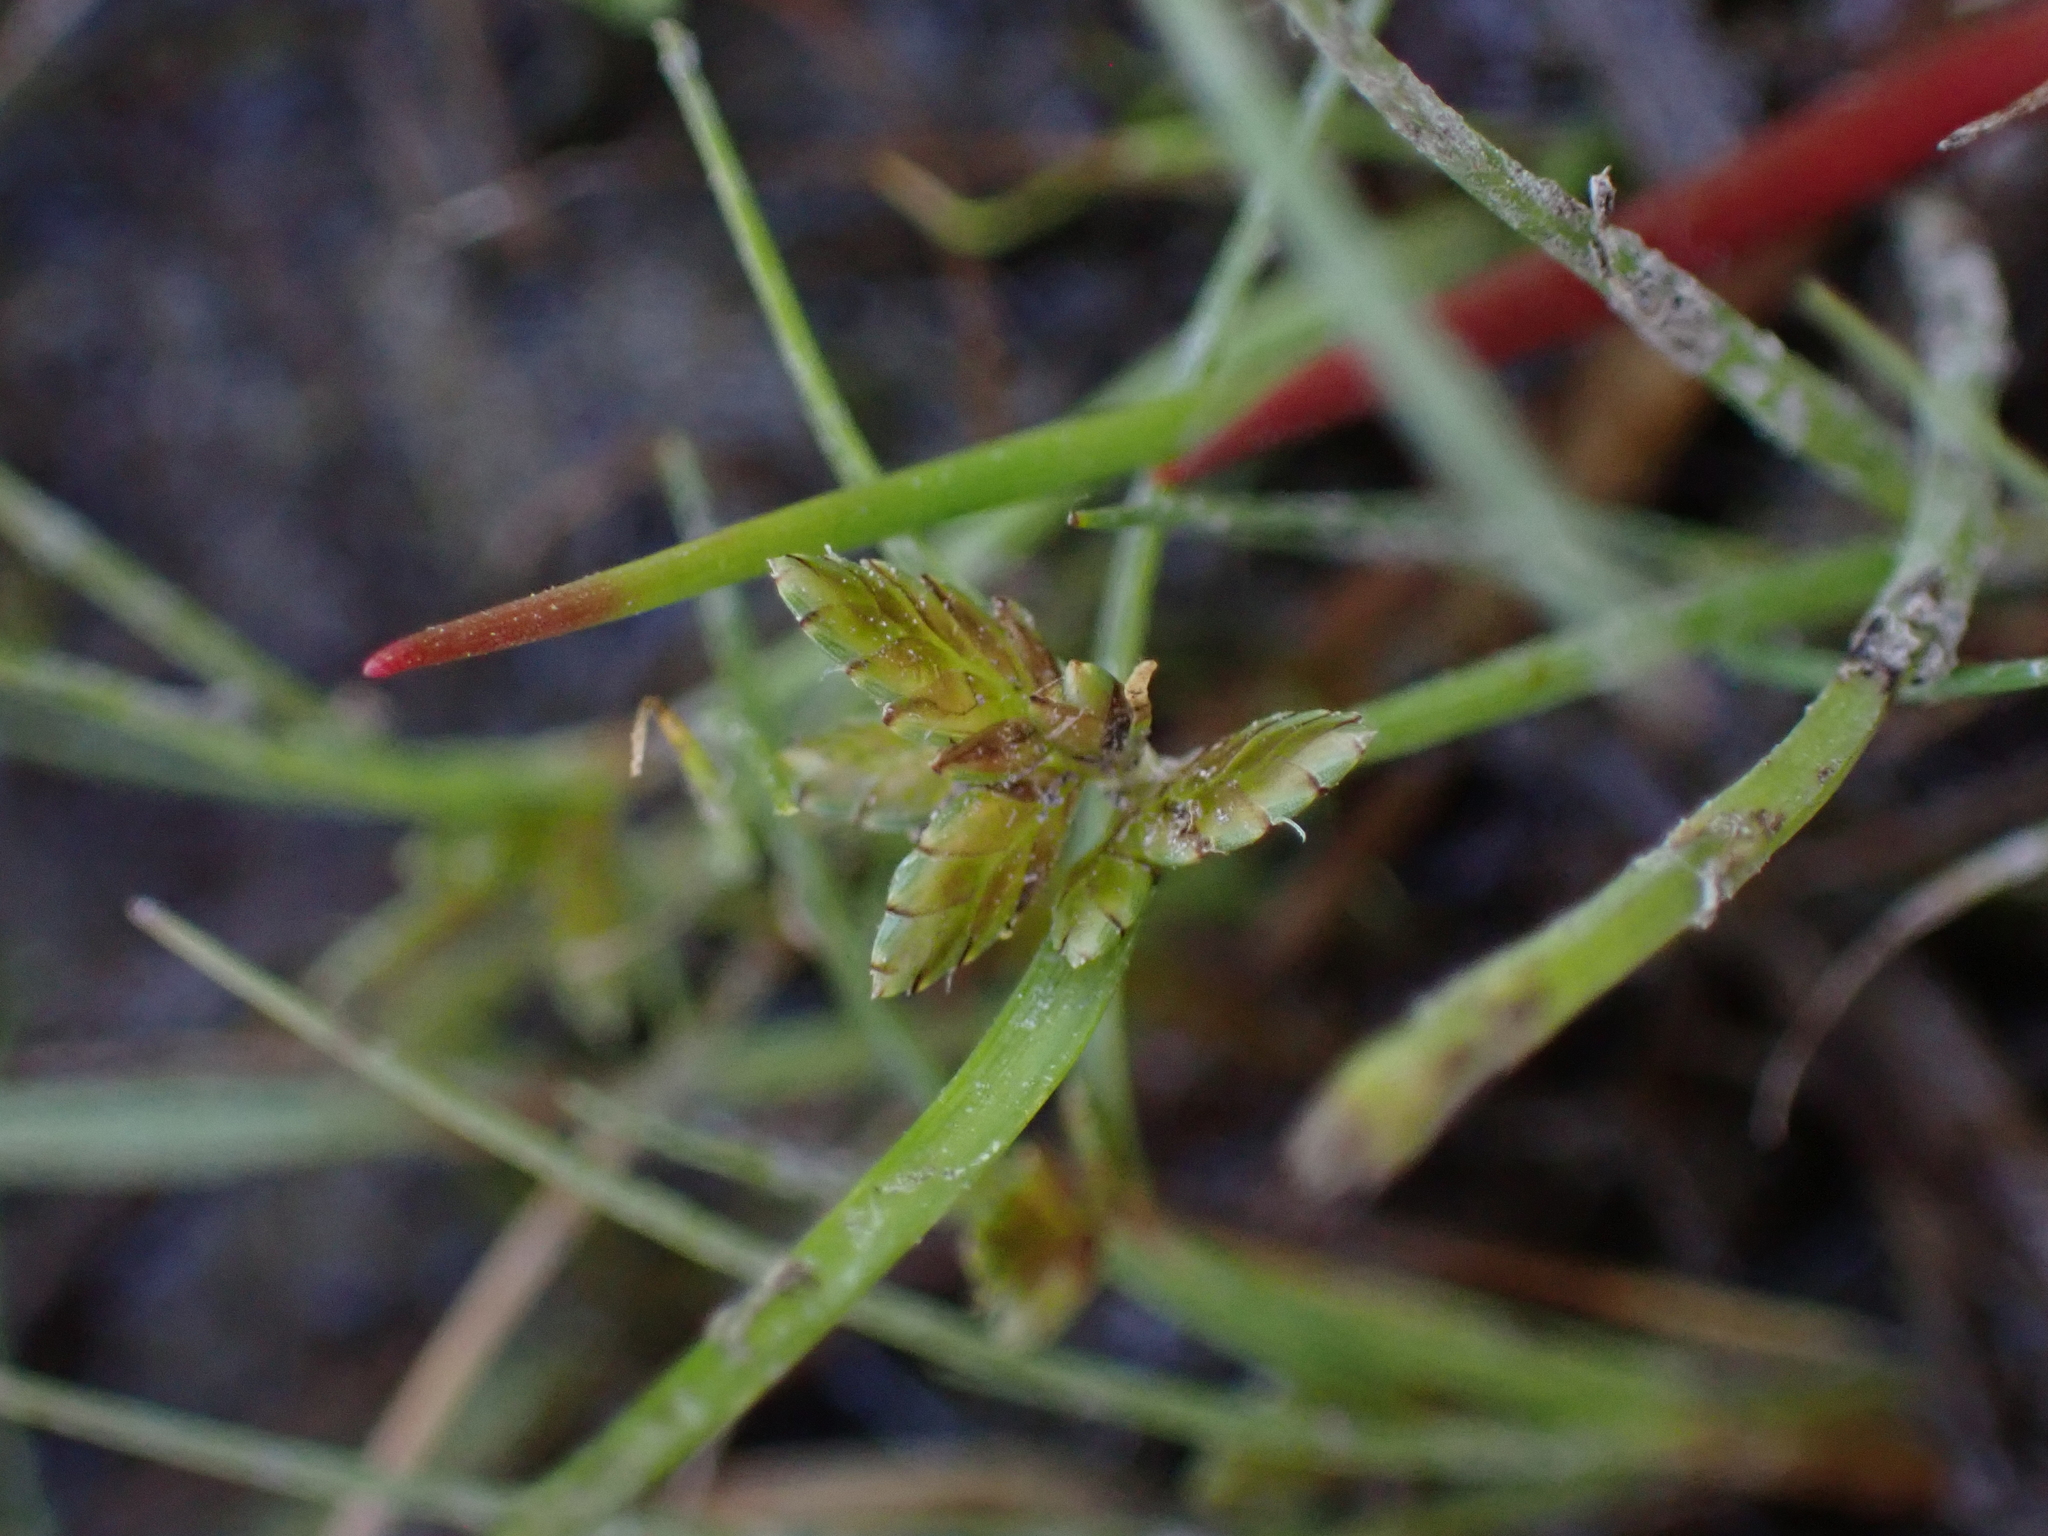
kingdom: Plantae
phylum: Tracheophyta
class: Liliopsida
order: Poales
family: Cyperaceae
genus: Cyperus
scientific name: Cyperus flavescens
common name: Yellow galingale
